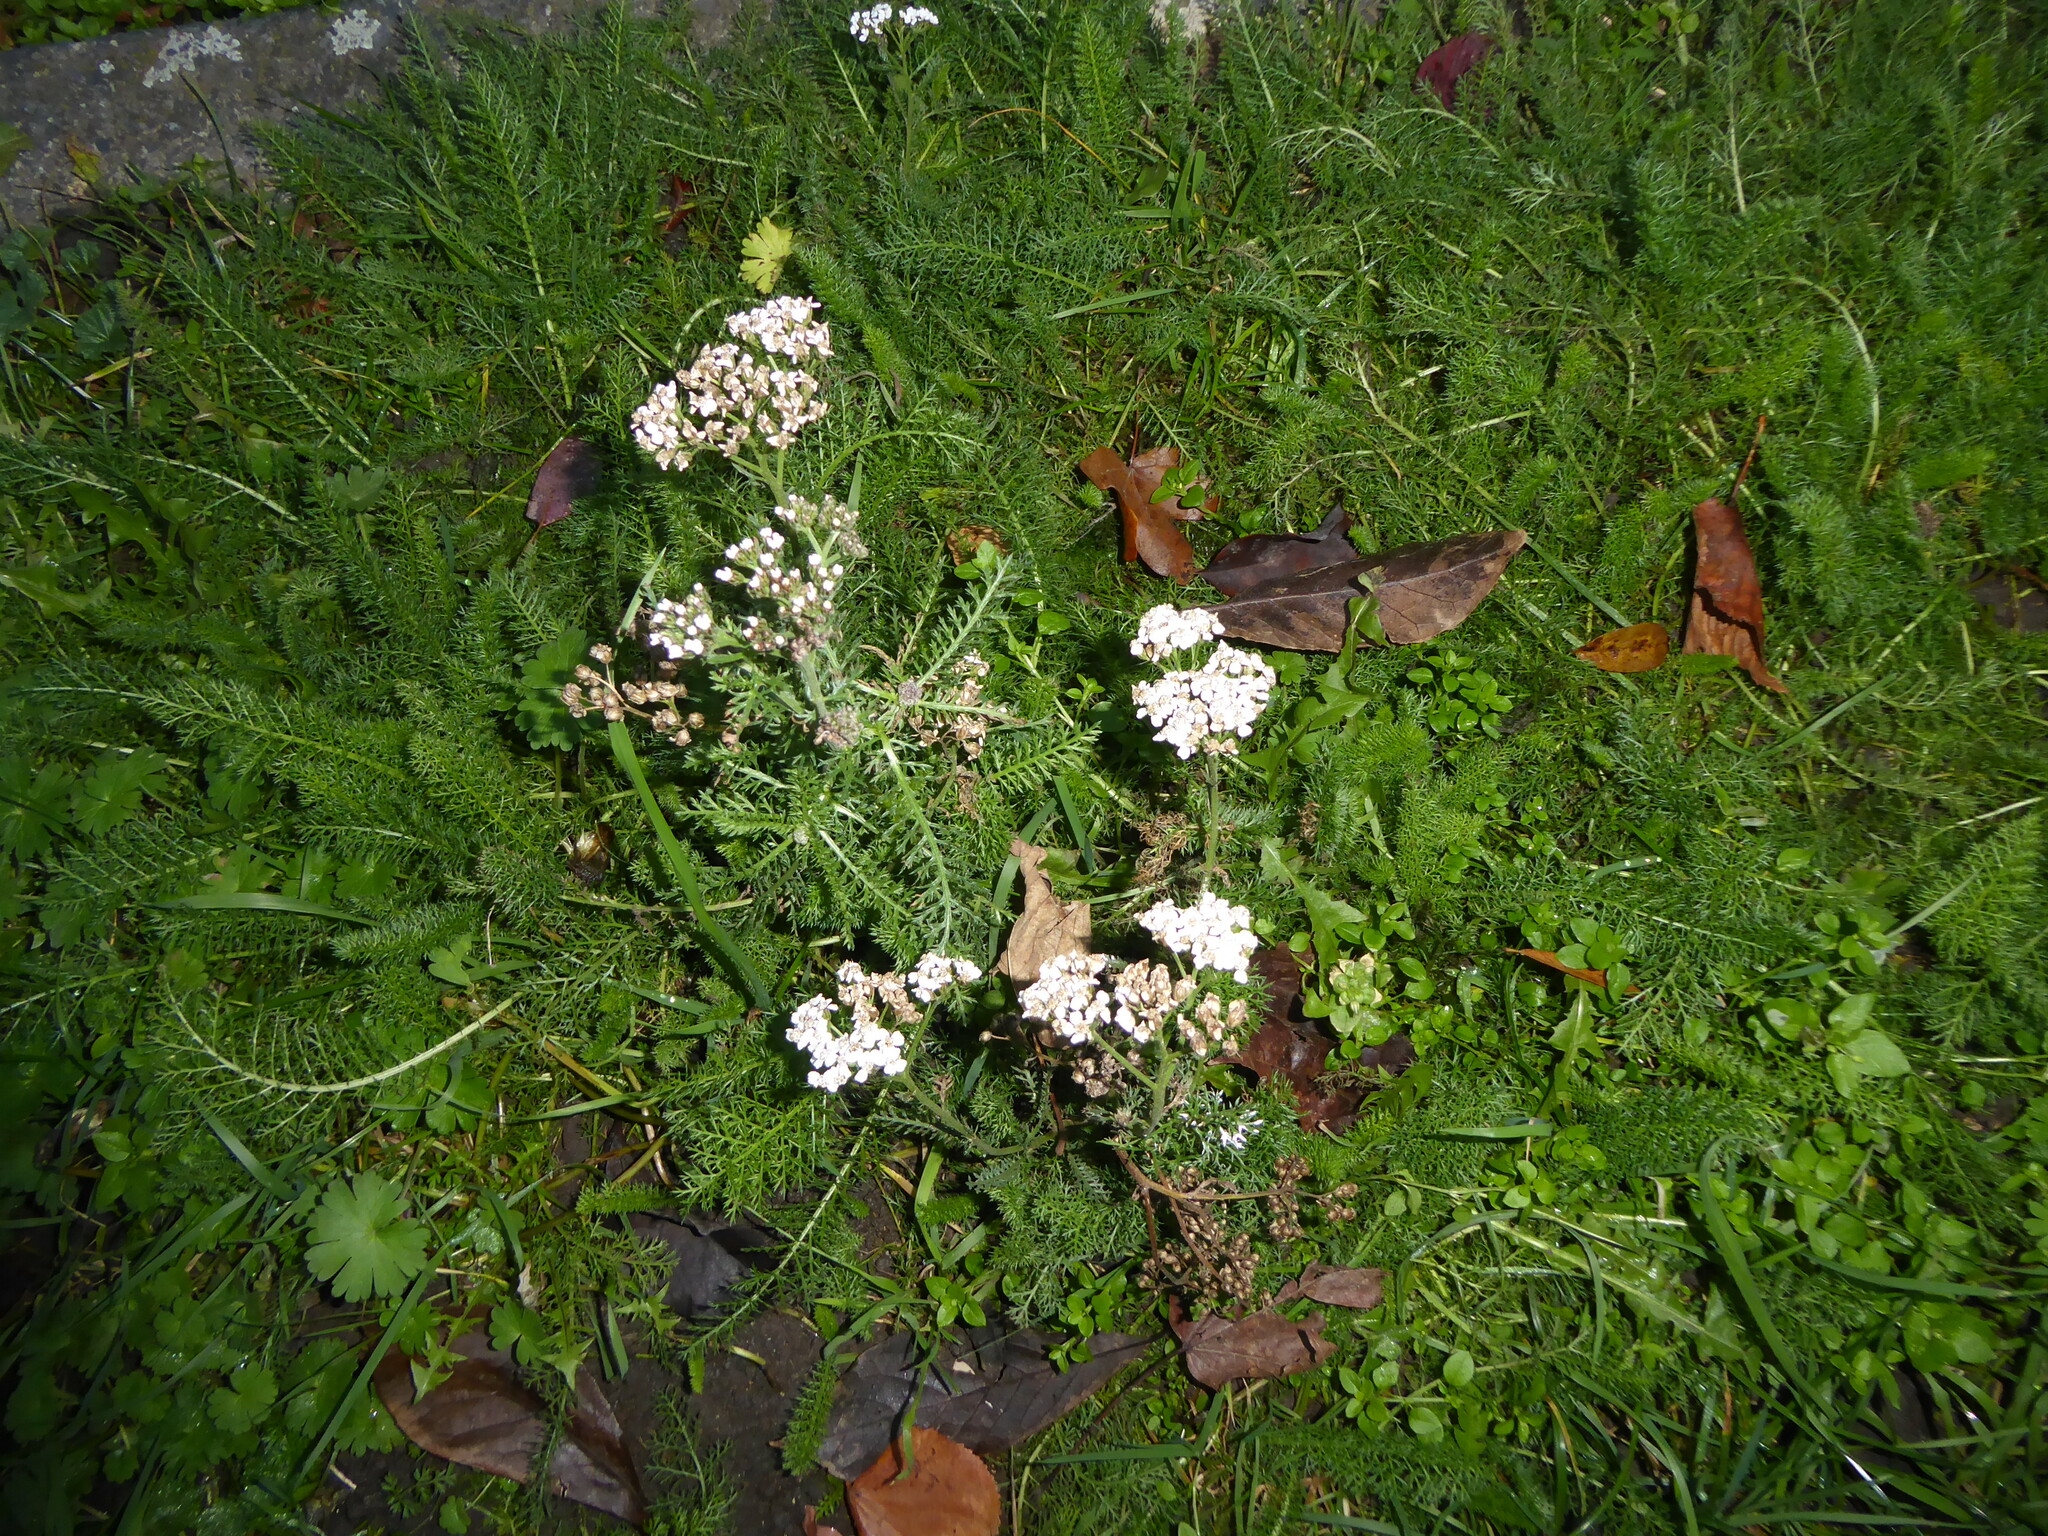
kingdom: Plantae
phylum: Tracheophyta
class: Magnoliopsida
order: Asterales
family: Asteraceae
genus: Achillea
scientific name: Achillea millefolium
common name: Yarrow
